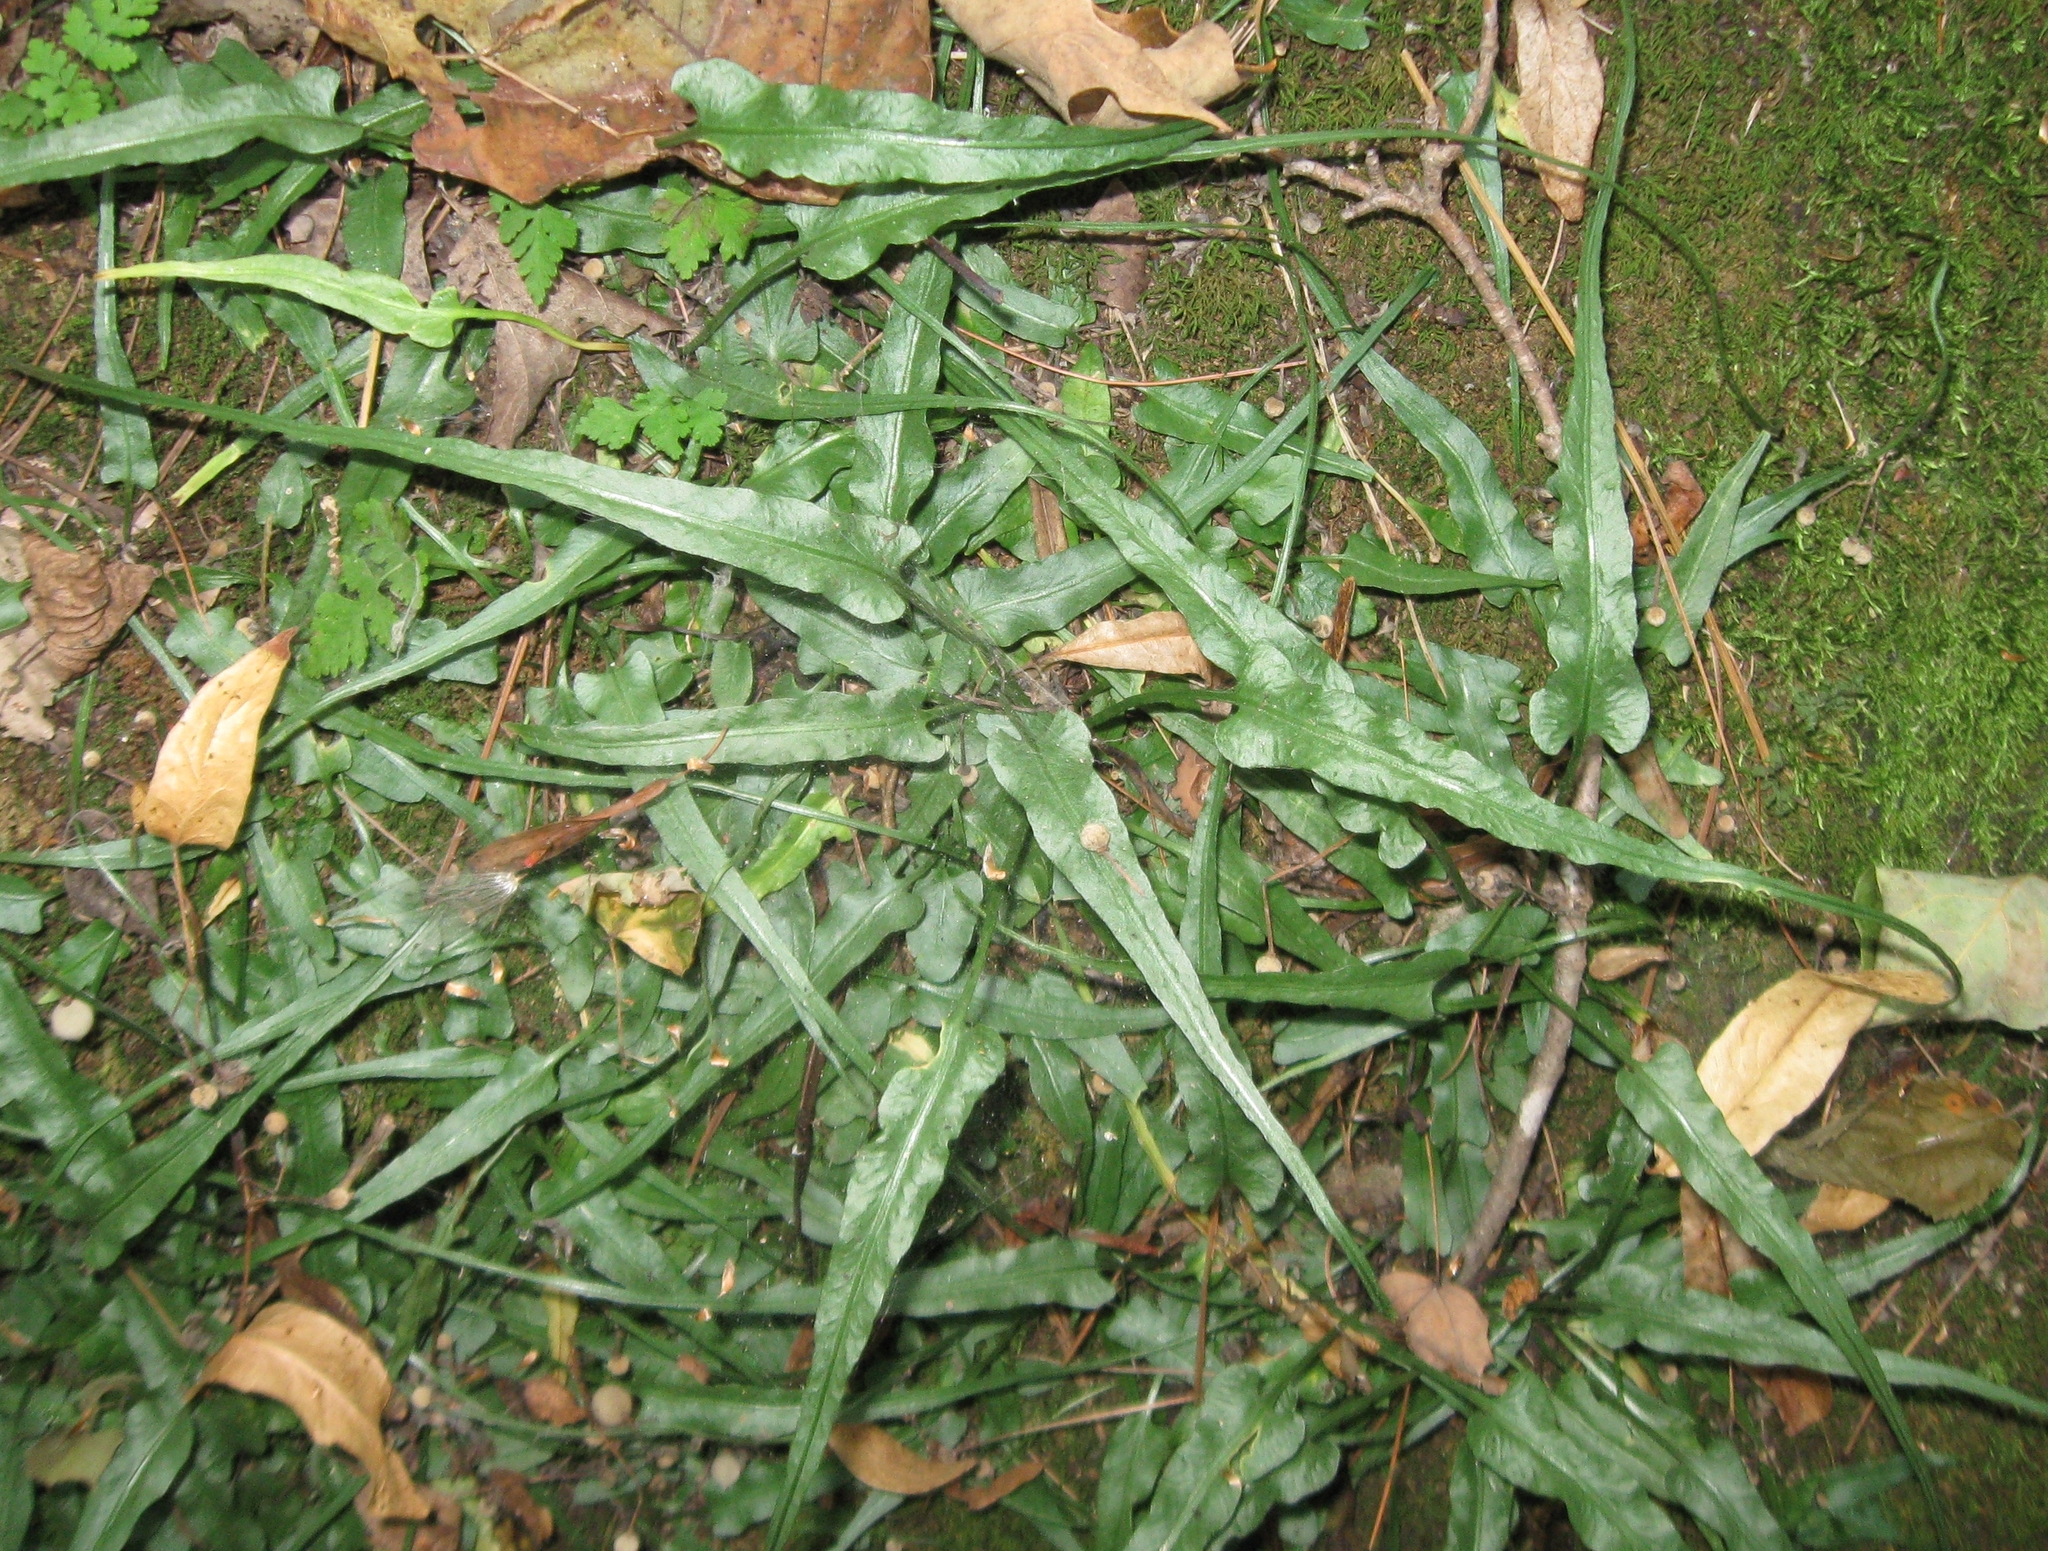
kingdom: Plantae
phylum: Tracheophyta
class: Polypodiopsida
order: Polypodiales
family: Aspleniaceae
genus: Asplenium
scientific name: Asplenium rhizophyllum
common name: Walking fern
